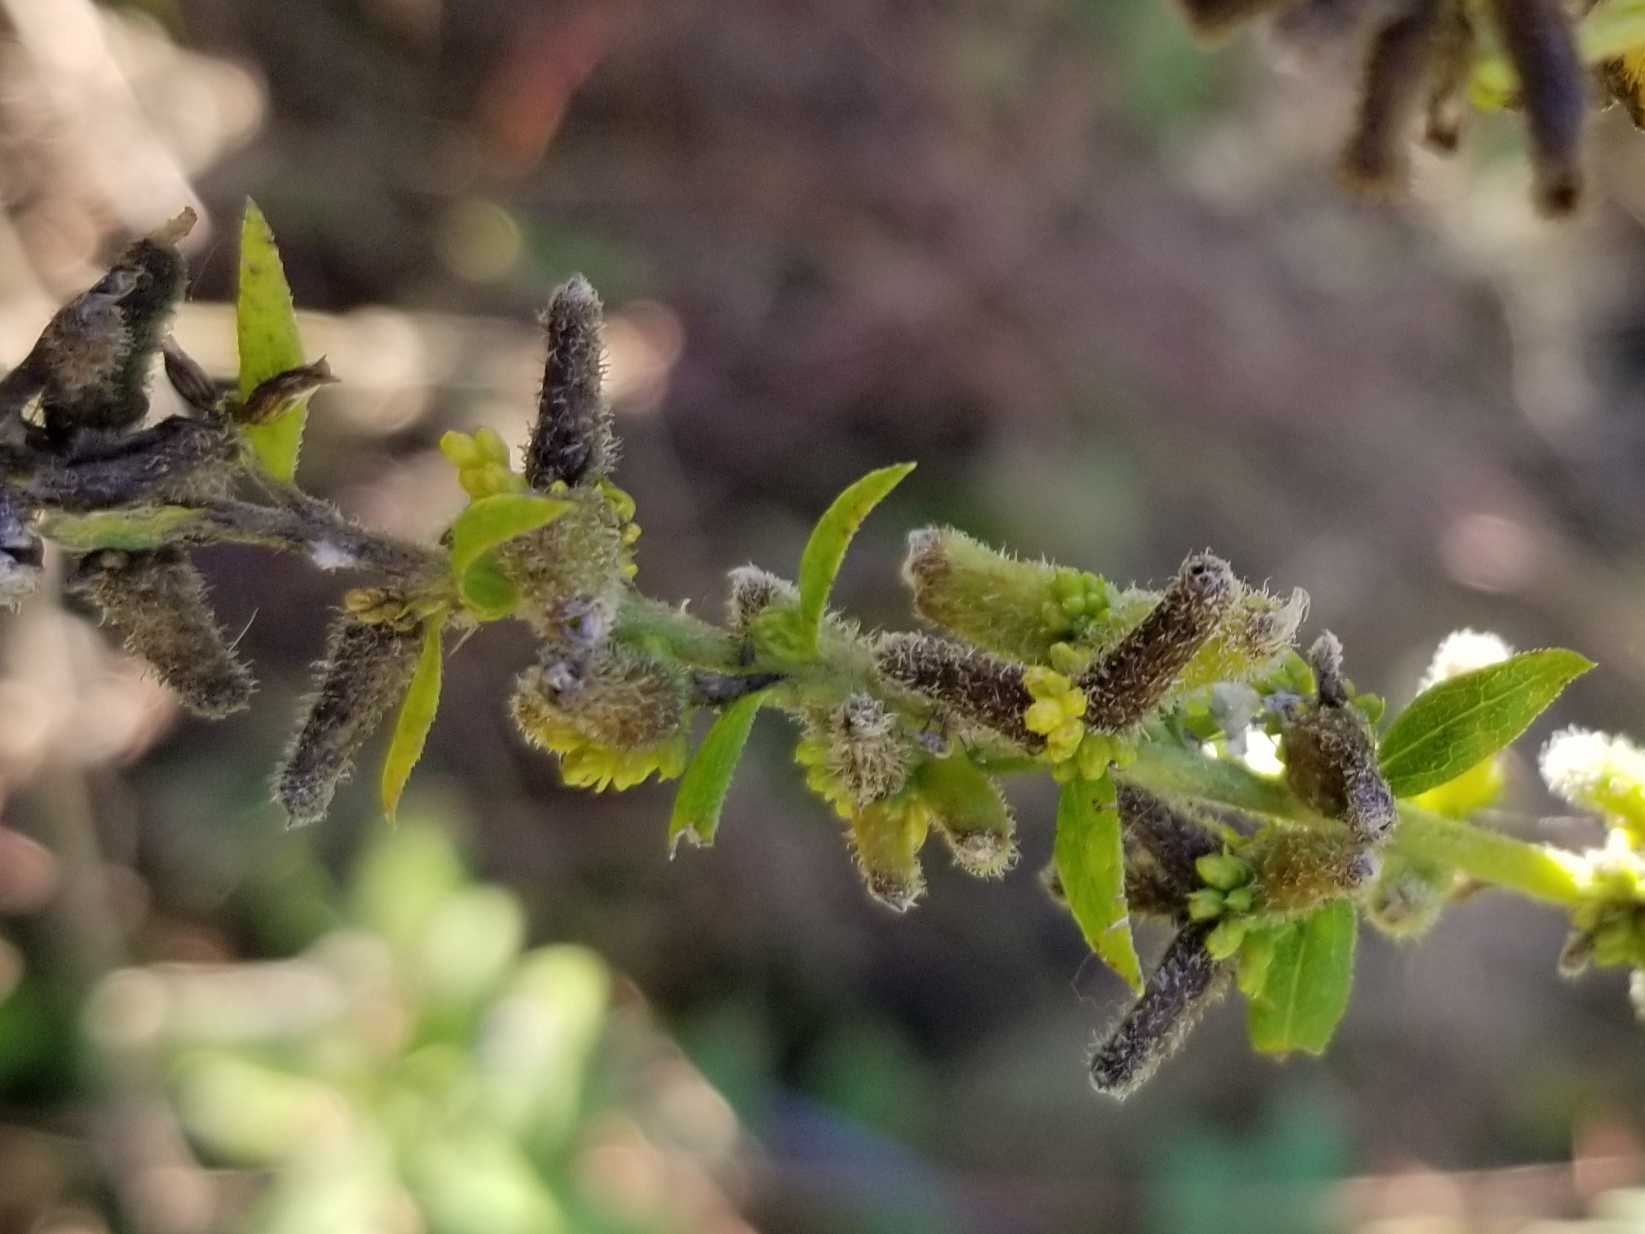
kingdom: Animalia
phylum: Arthropoda
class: Insecta
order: Diptera
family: Cecidomyiidae
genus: Rhopalomyia
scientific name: Rhopalomyia anthophila
